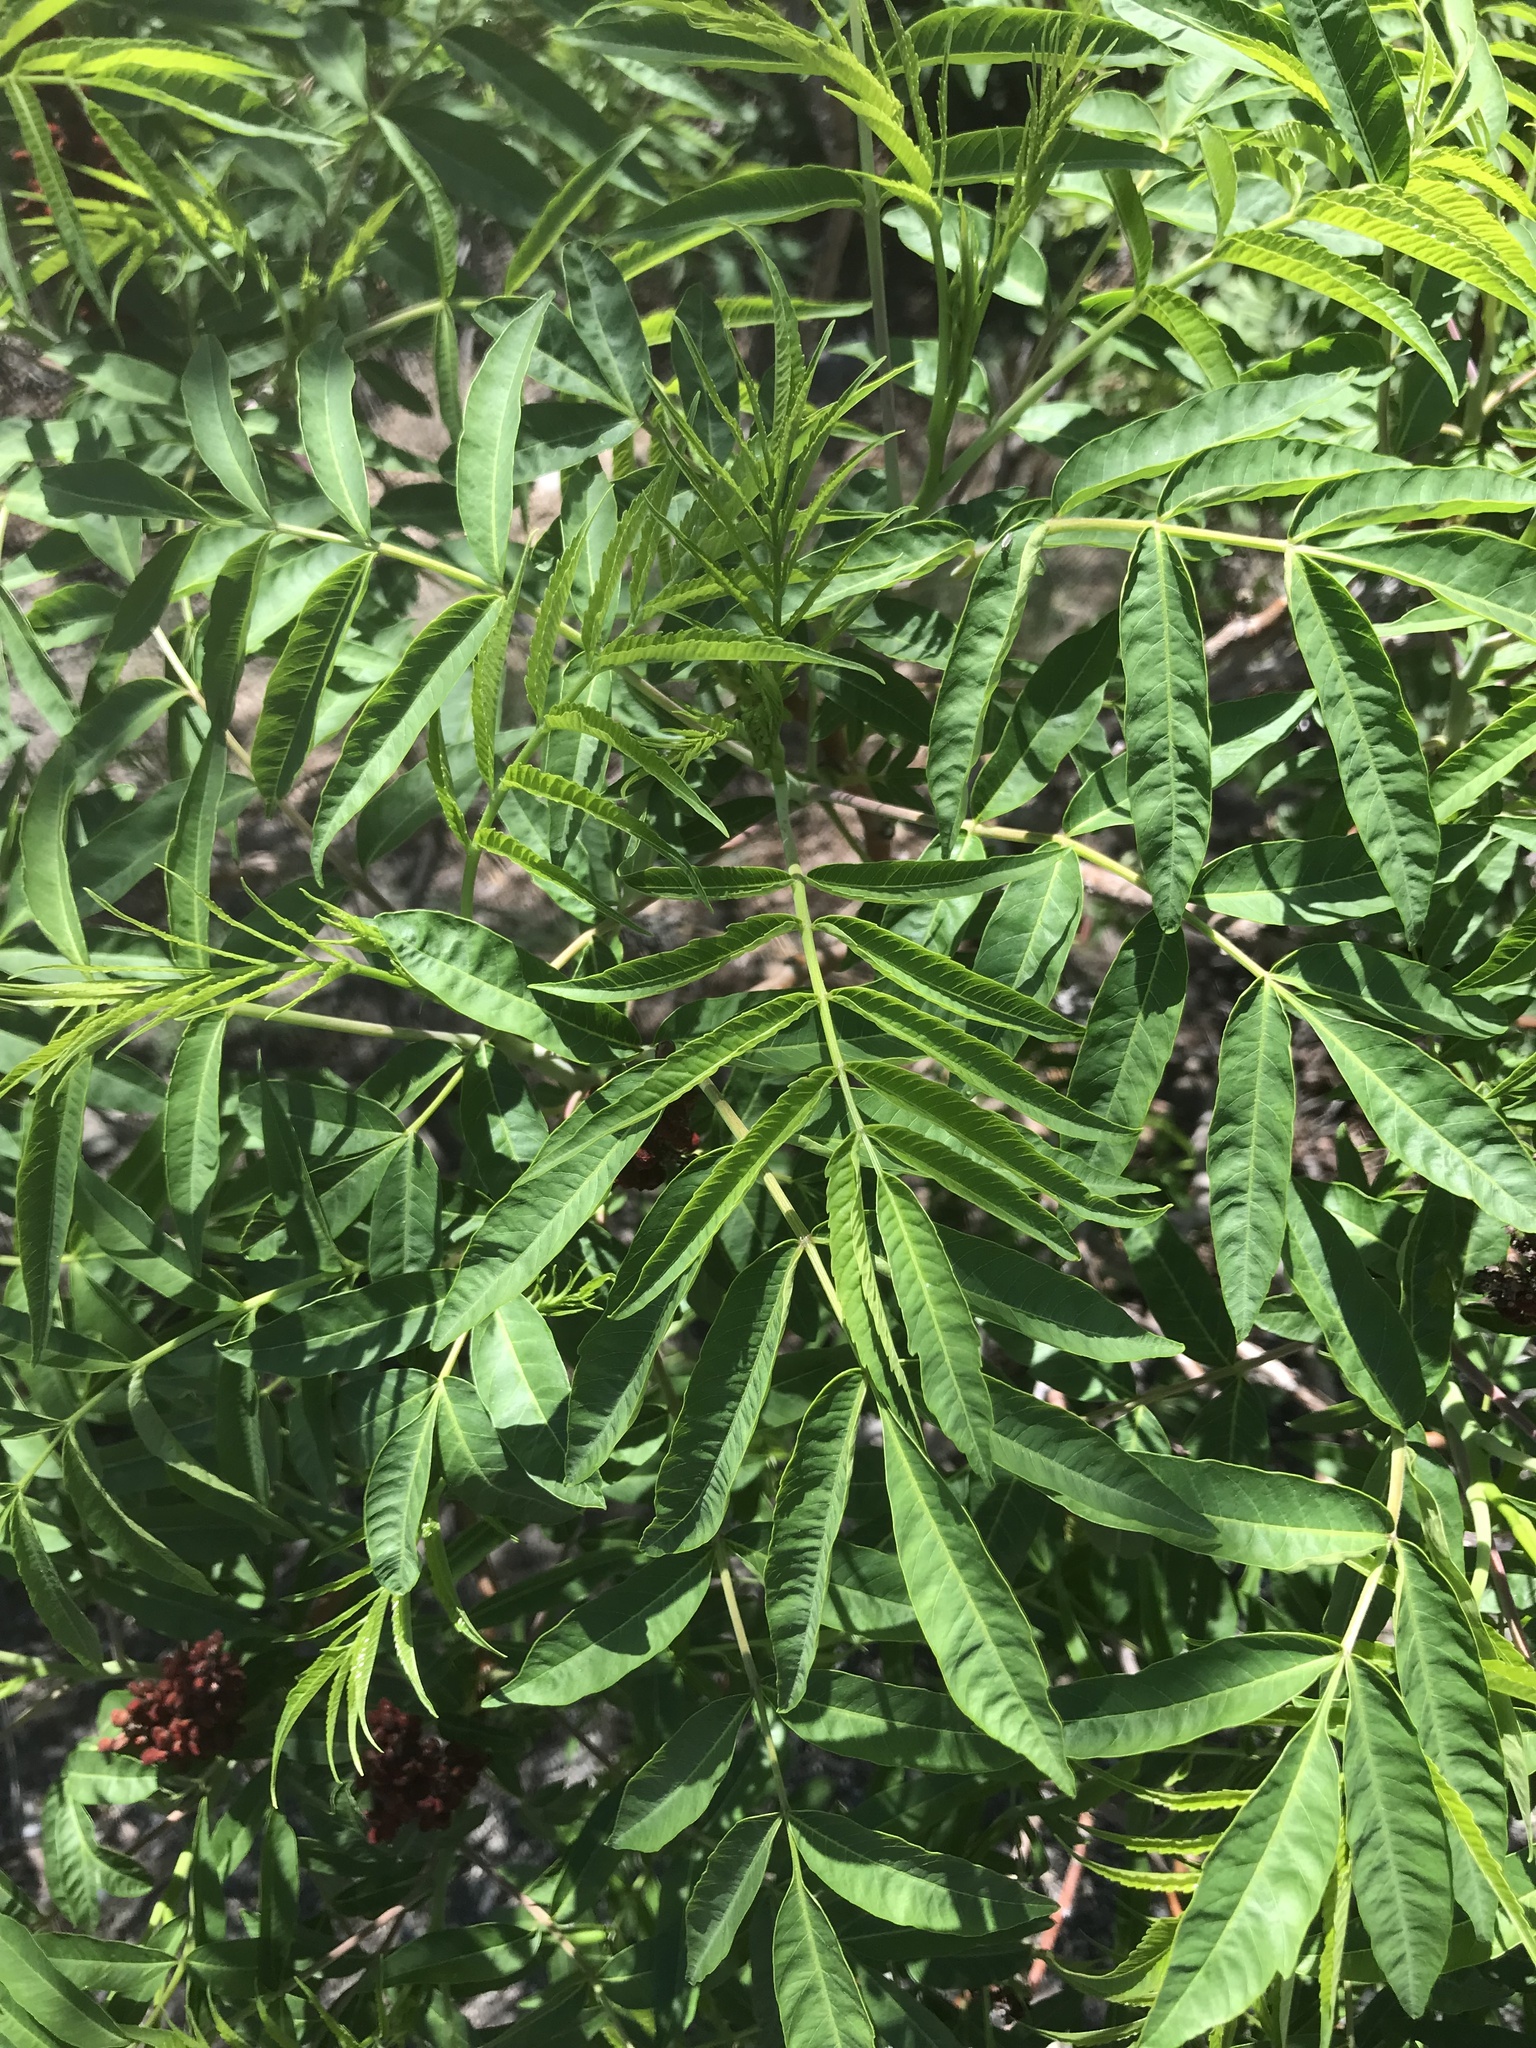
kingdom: Plantae
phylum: Tracheophyta
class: Magnoliopsida
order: Sapindales
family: Anacardiaceae
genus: Rhus
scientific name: Rhus glabra
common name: Scarlet sumac
